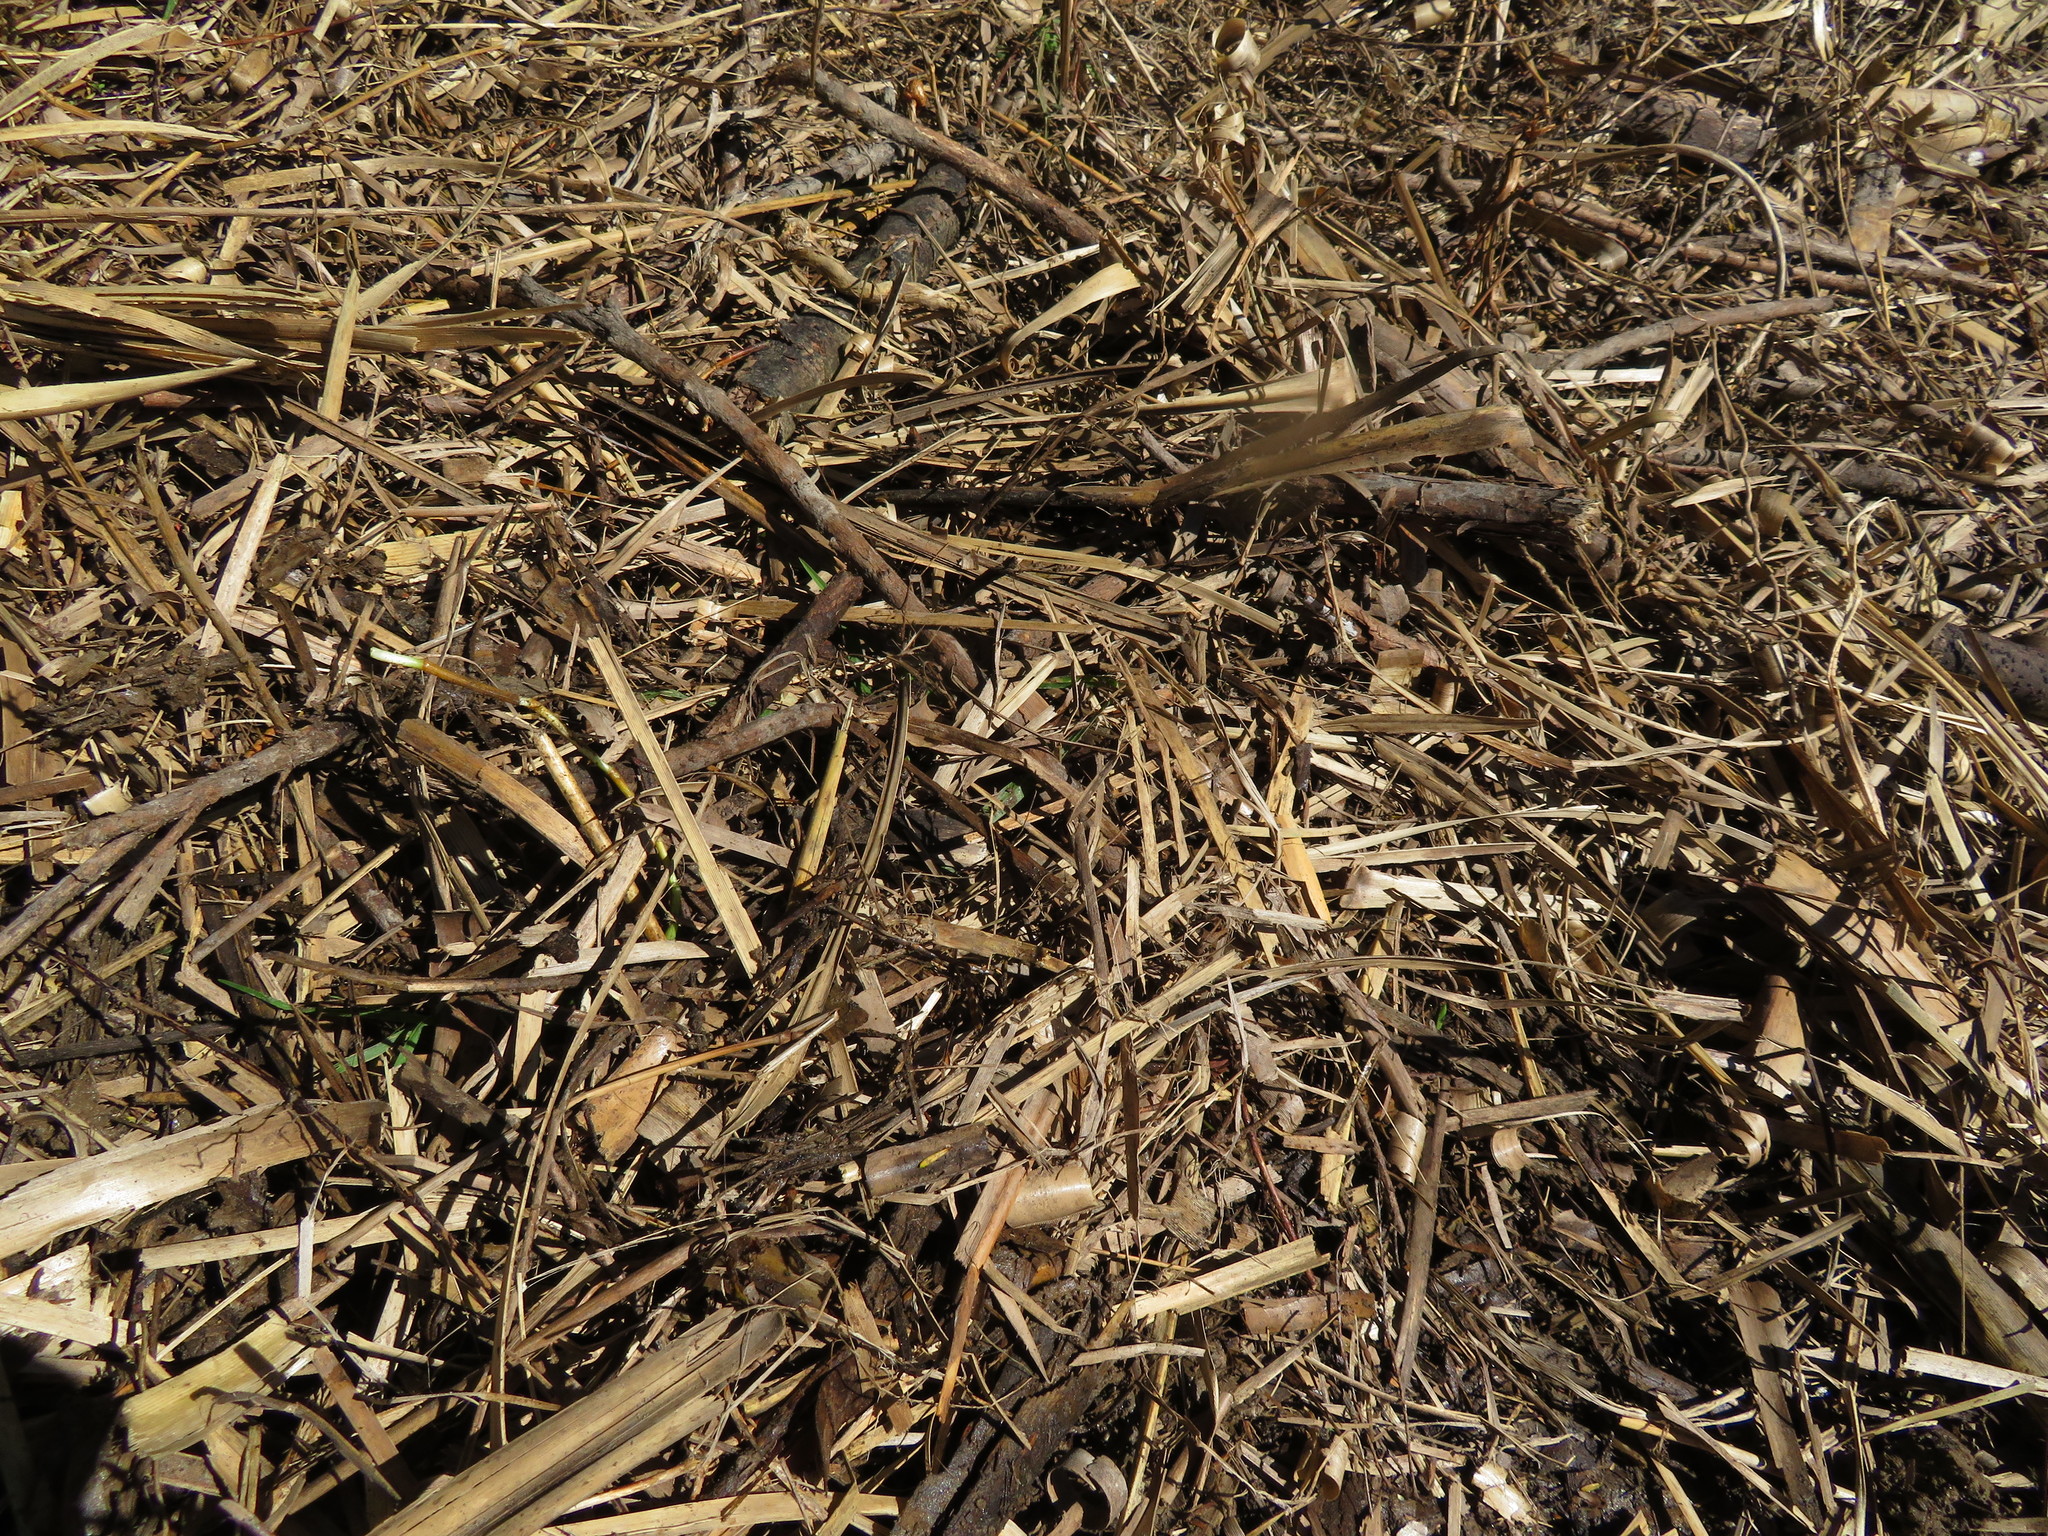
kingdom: Plantae
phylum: Tracheophyta
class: Liliopsida
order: Poales
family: Poaceae
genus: Cenchrus
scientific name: Cenchrus clandestinus
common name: Kikuyugrass
